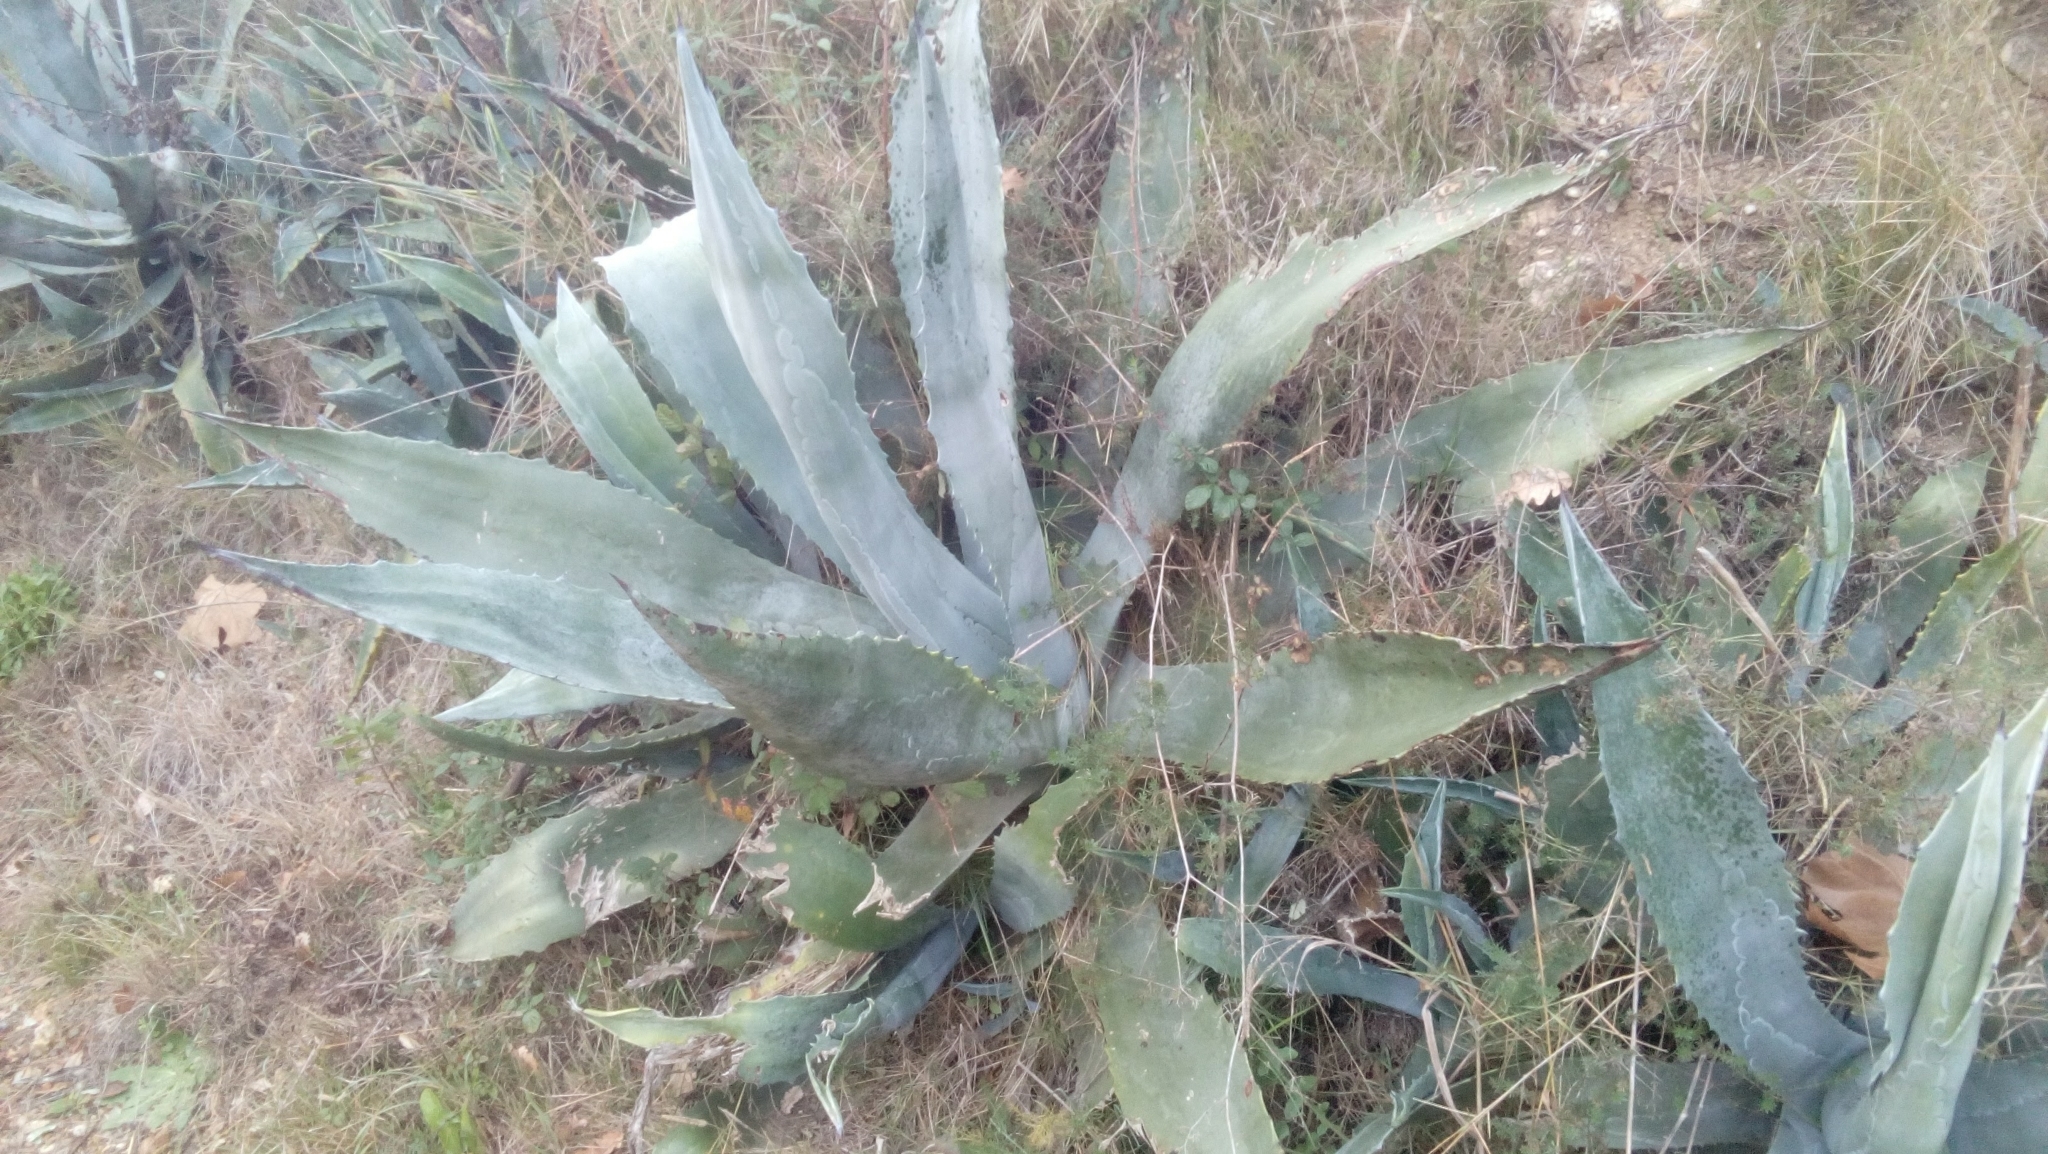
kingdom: Plantae
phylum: Tracheophyta
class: Liliopsida
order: Asparagales
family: Asparagaceae
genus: Agave
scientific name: Agave americana
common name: Centuryplant
